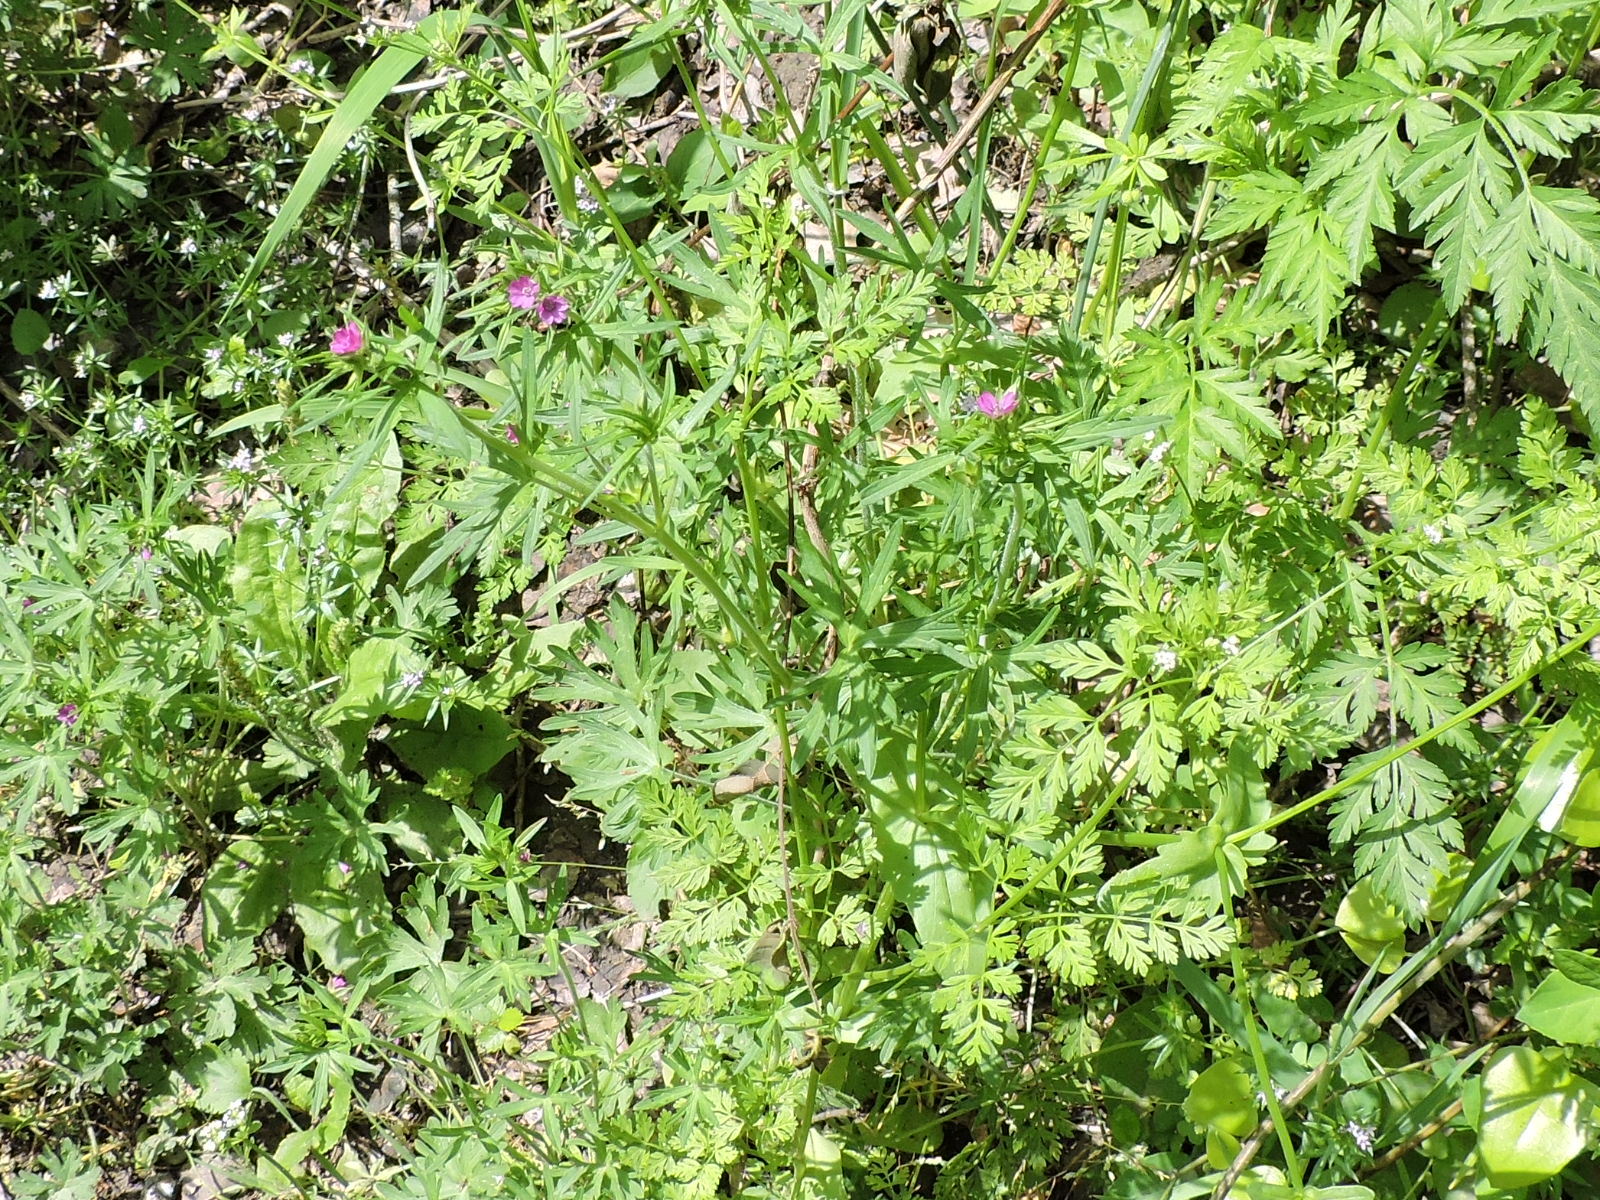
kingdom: Plantae
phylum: Tracheophyta
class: Magnoliopsida
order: Geraniales
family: Geraniaceae
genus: Geranium
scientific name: Geranium dissectum
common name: Cut-leaved crane's-bill
